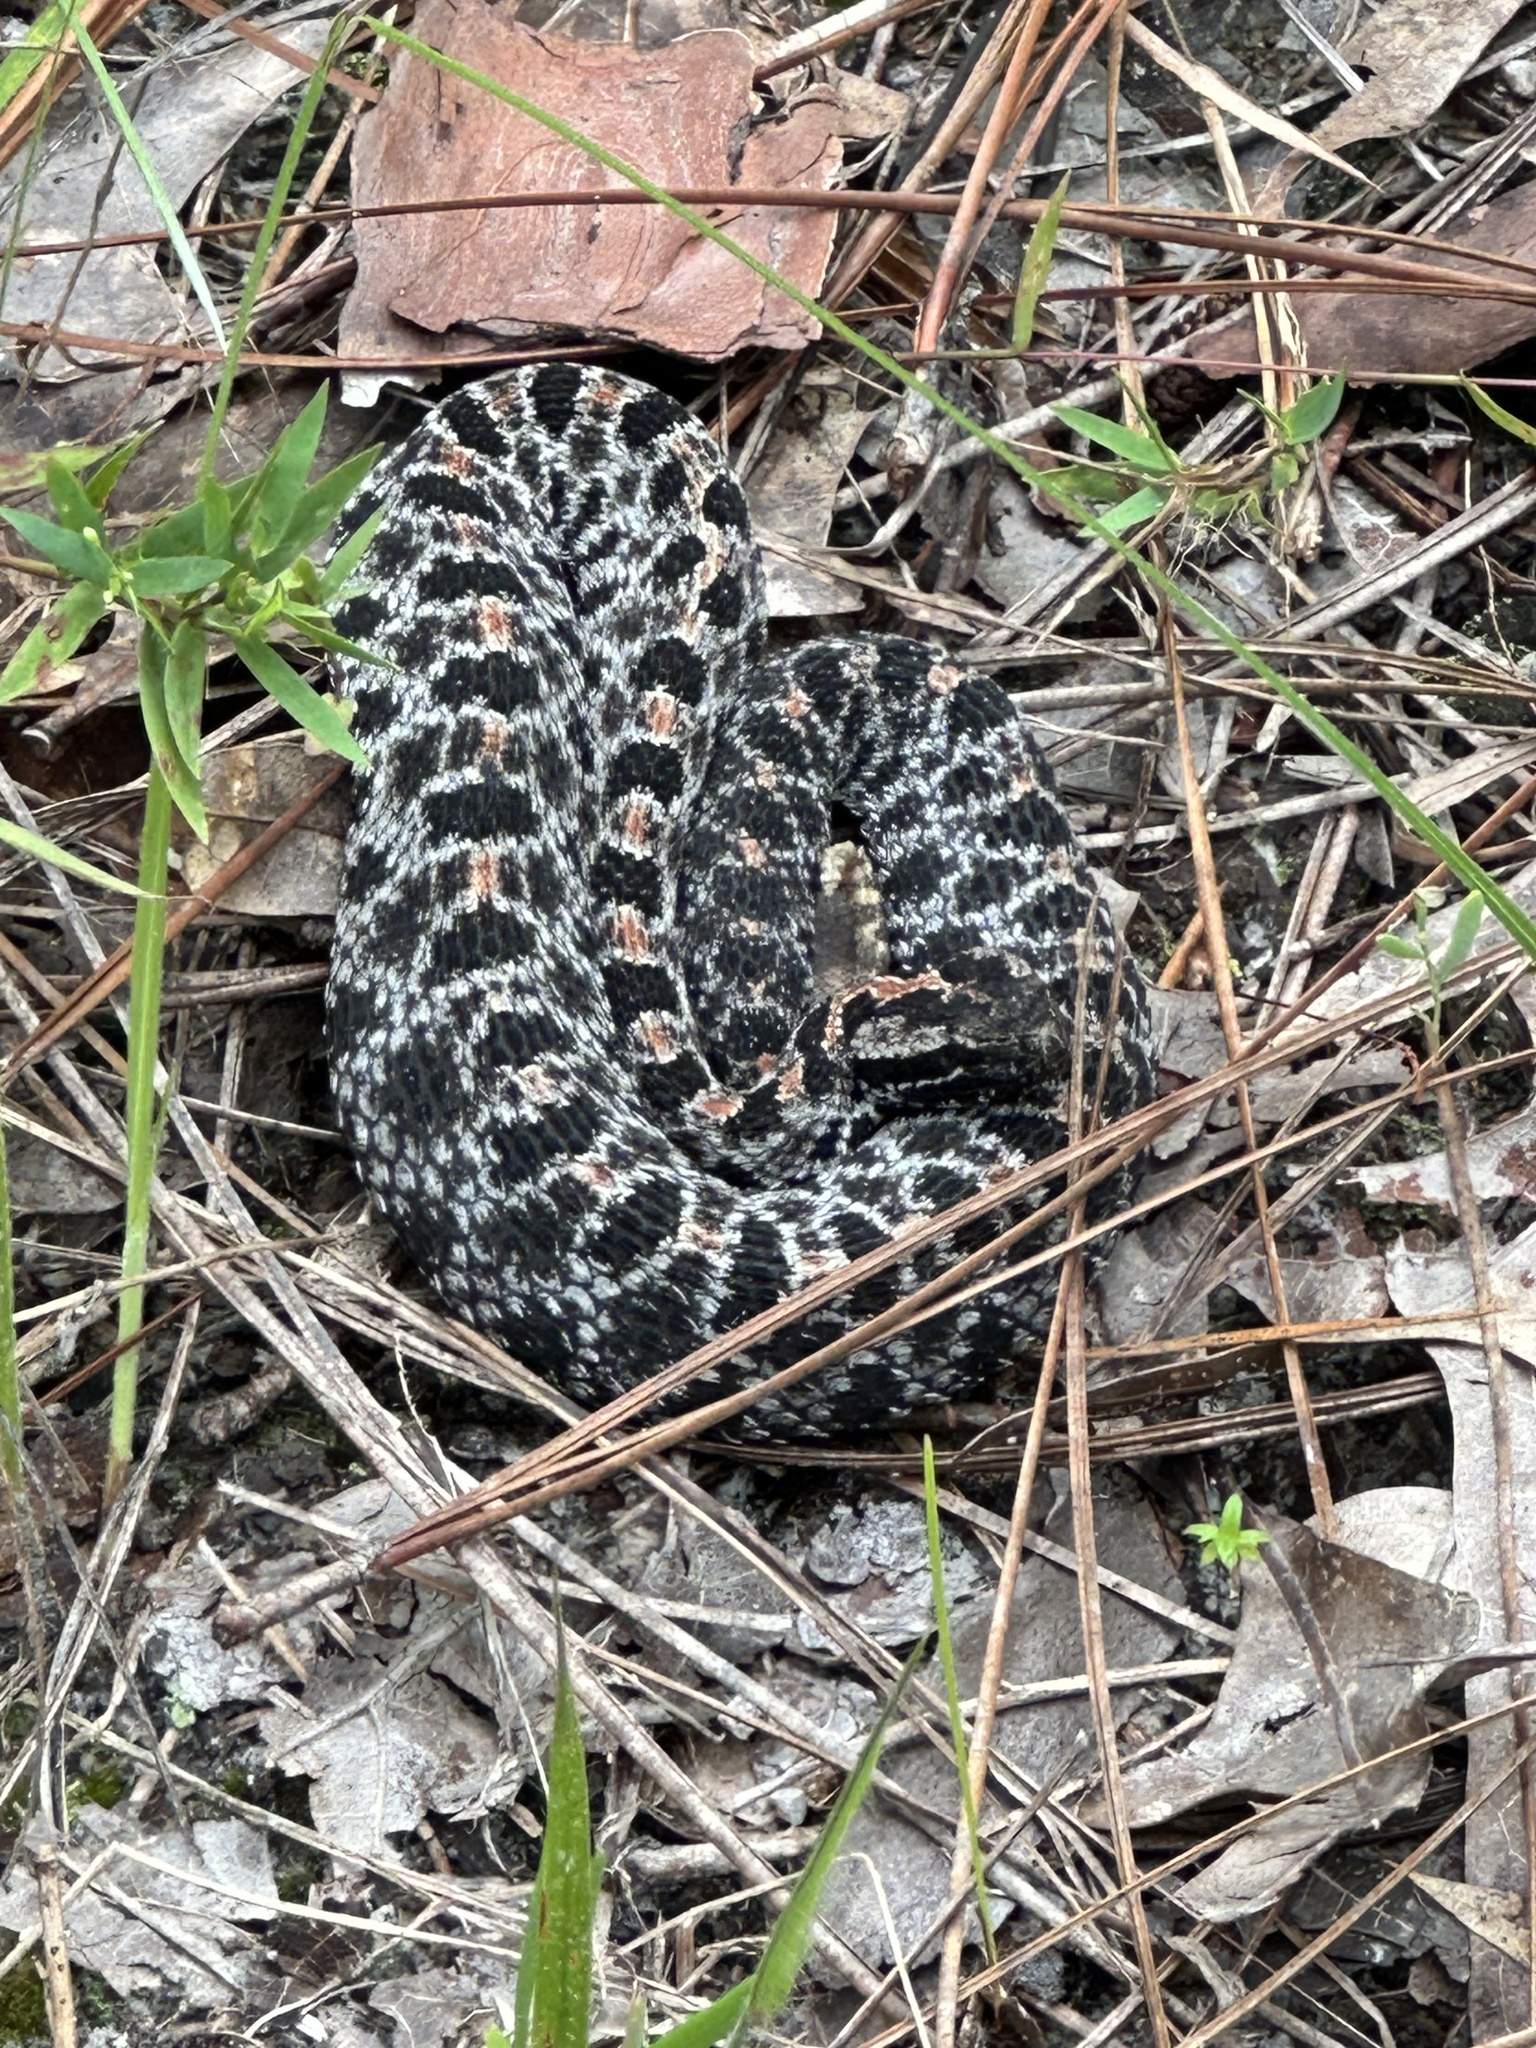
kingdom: Animalia
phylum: Chordata
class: Squamata
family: Viperidae
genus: Sistrurus
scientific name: Sistrurus miliarius
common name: Pygmy rattlesnake
